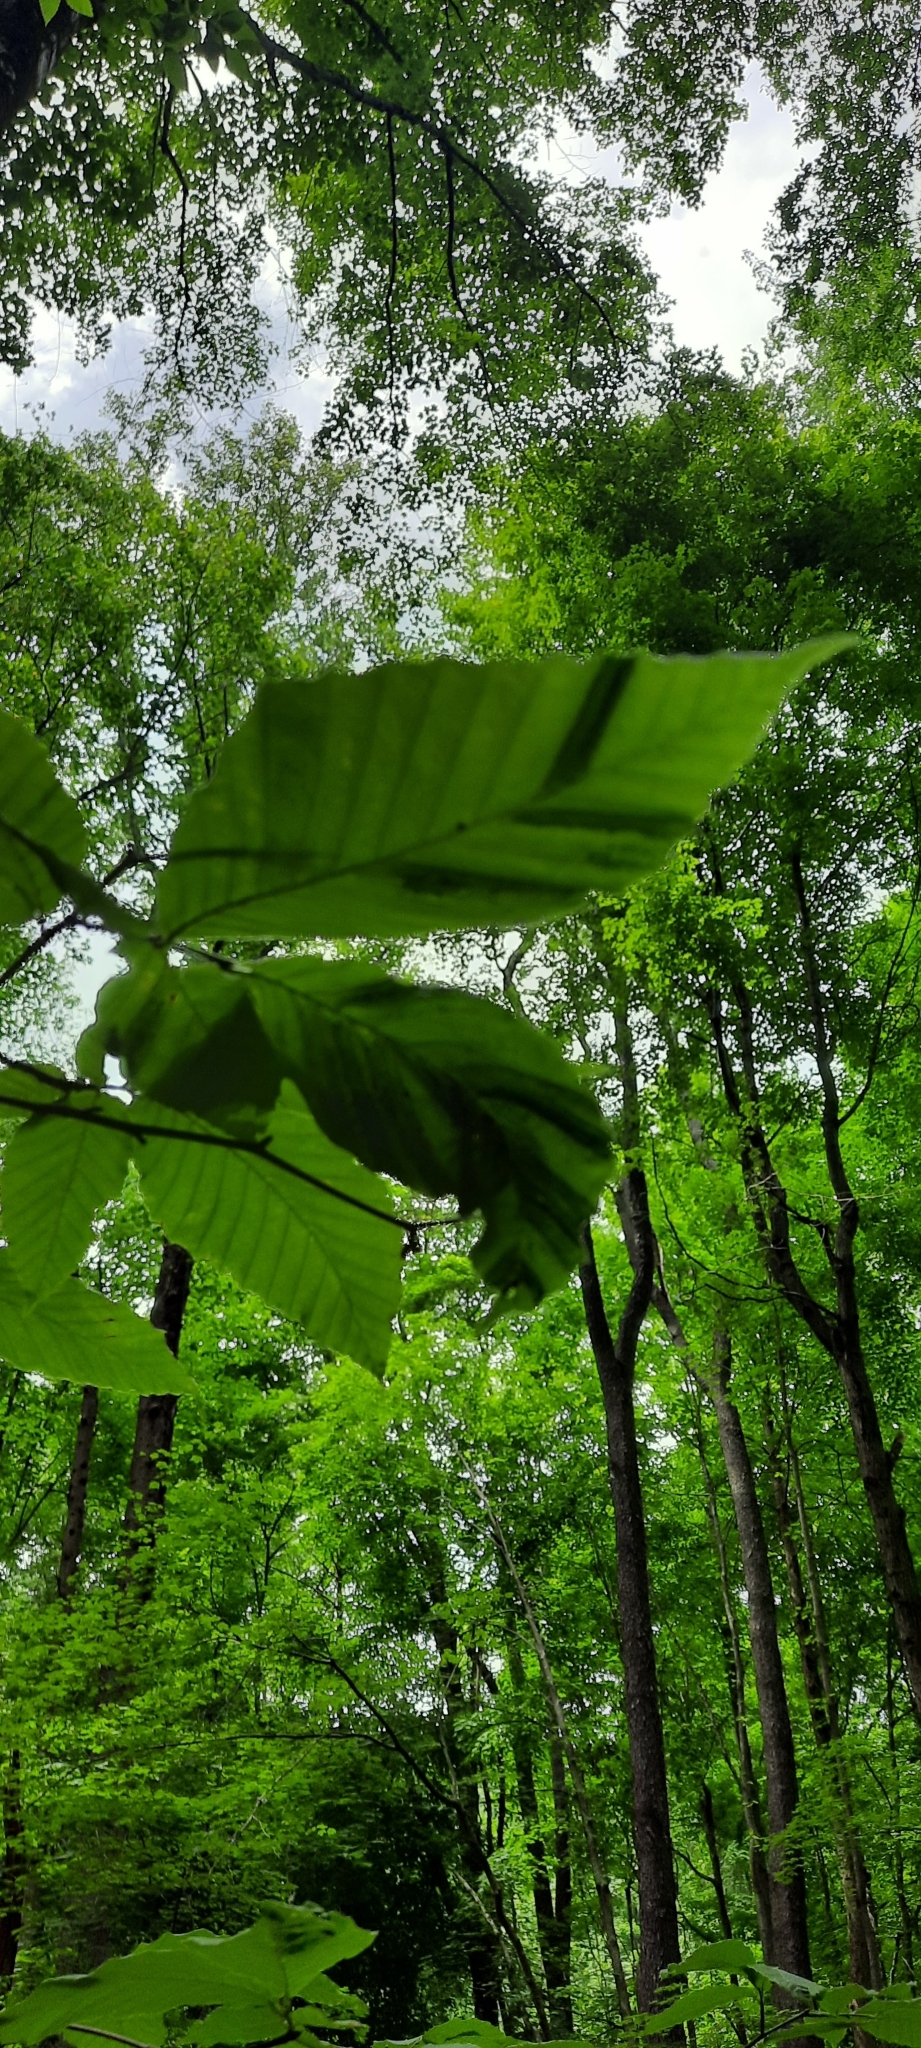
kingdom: Animalia
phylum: Nematoda
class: Chromadorea
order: Rhabditida
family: Anguinidae
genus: Litylenchus
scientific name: Litylenchus crenatae
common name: Beech leaf disease
